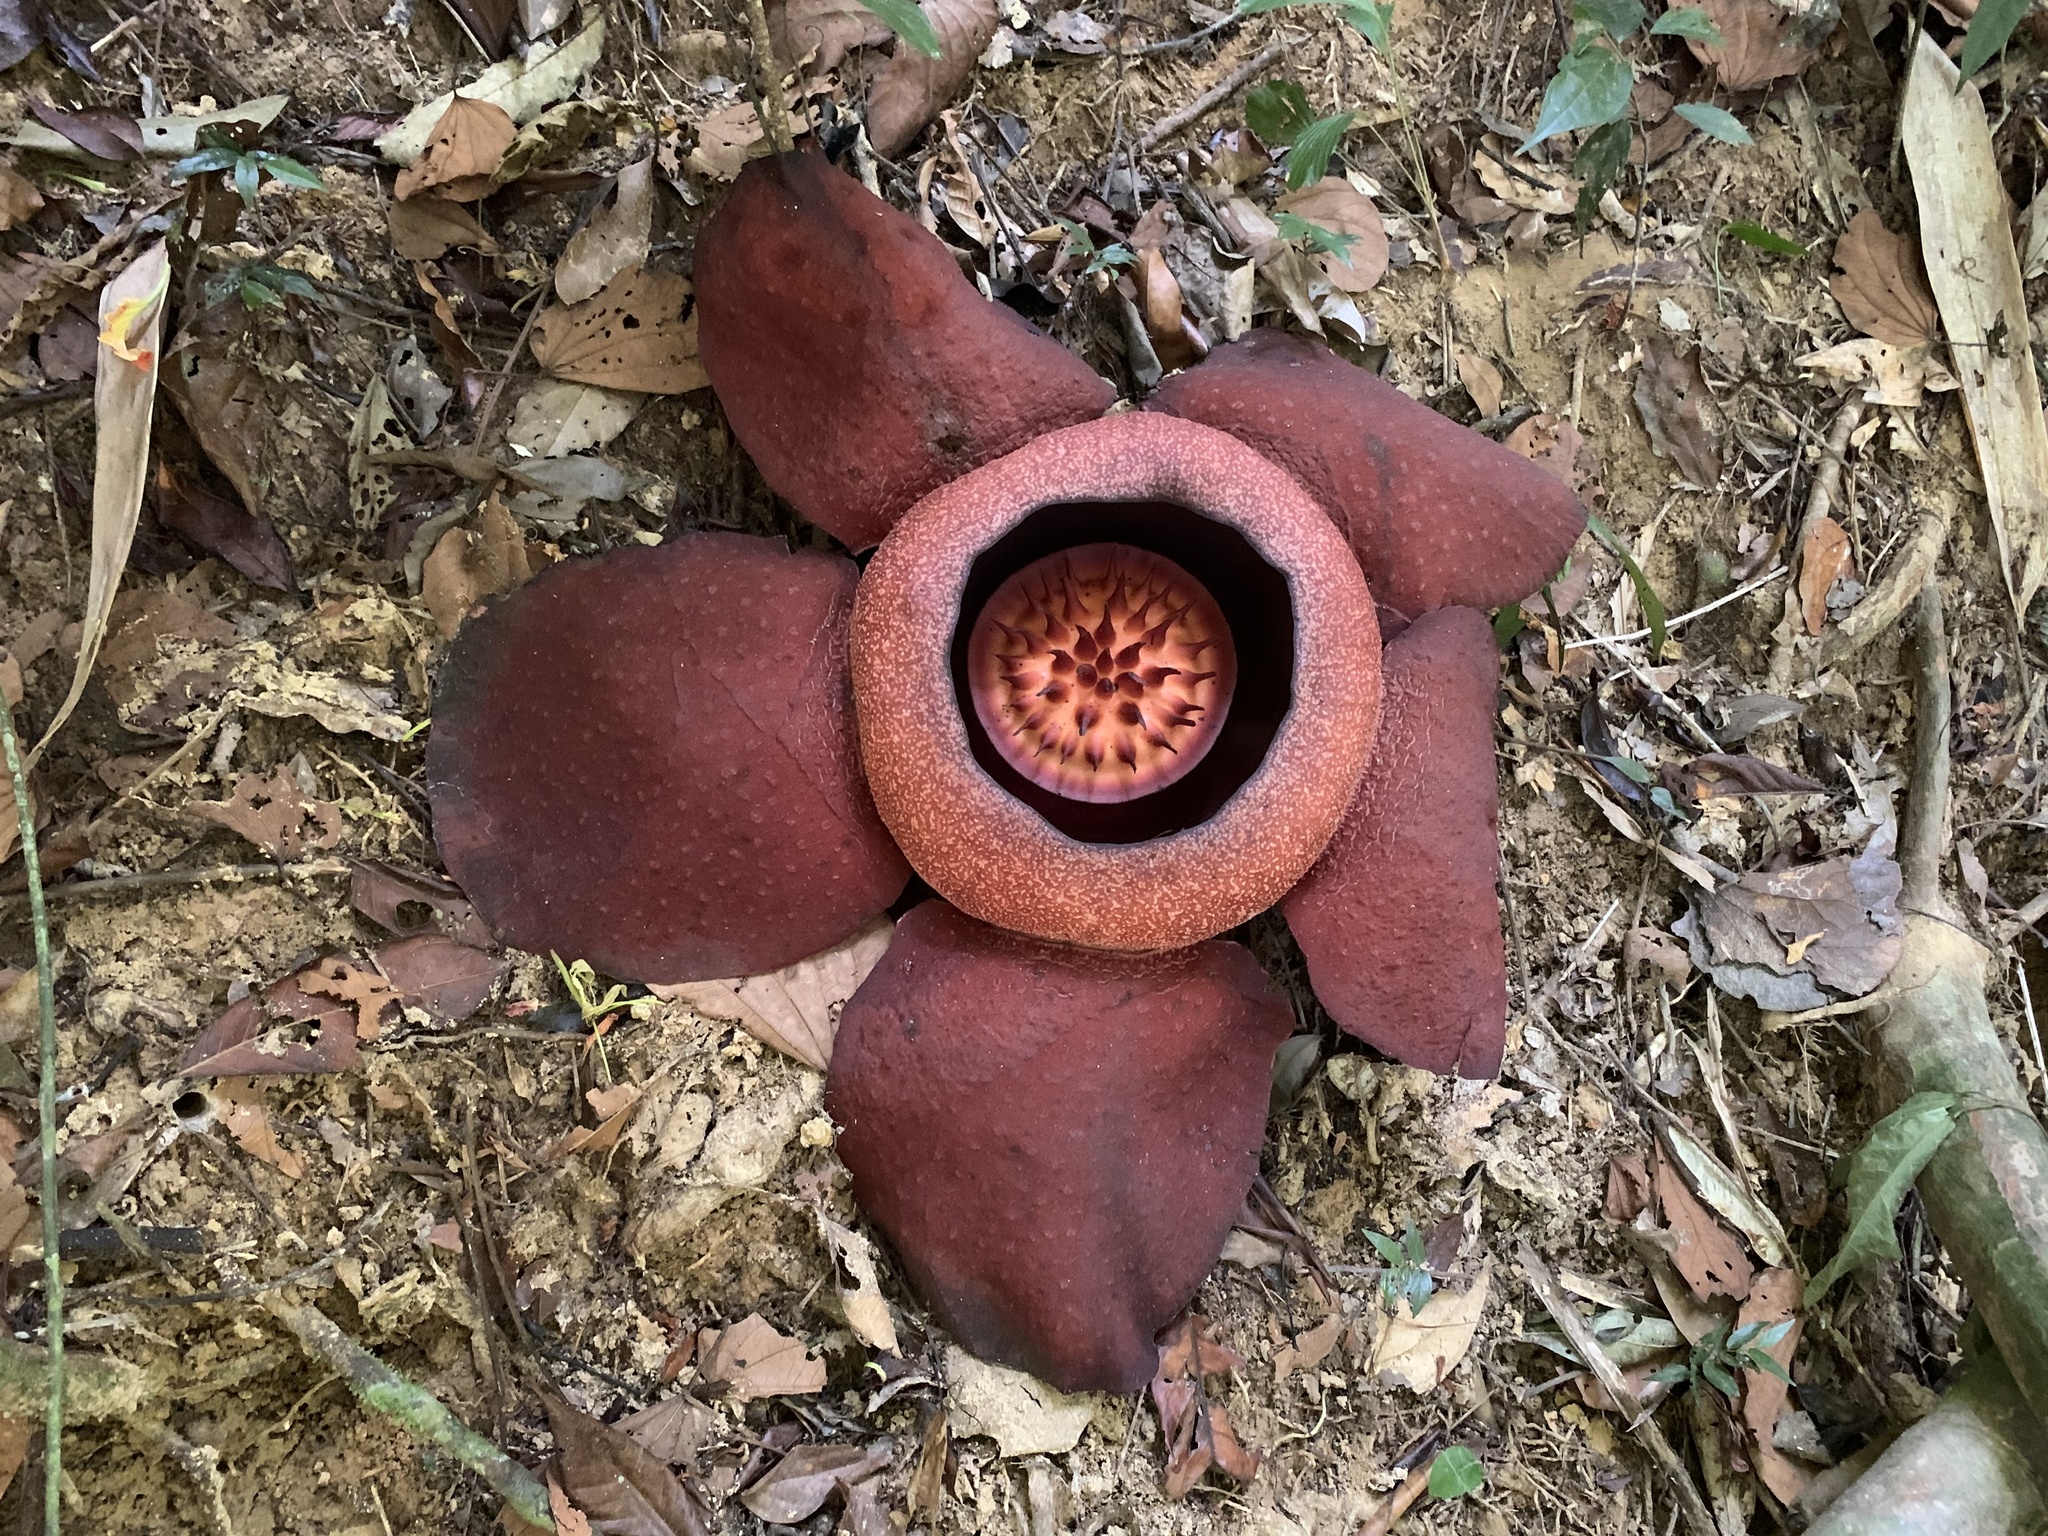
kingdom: Plantae
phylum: Tracheophyta
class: Magnoliopsida
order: Malpighiales
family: Rafflesiaceae
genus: Rafflesia
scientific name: Rafflesia kerrii
